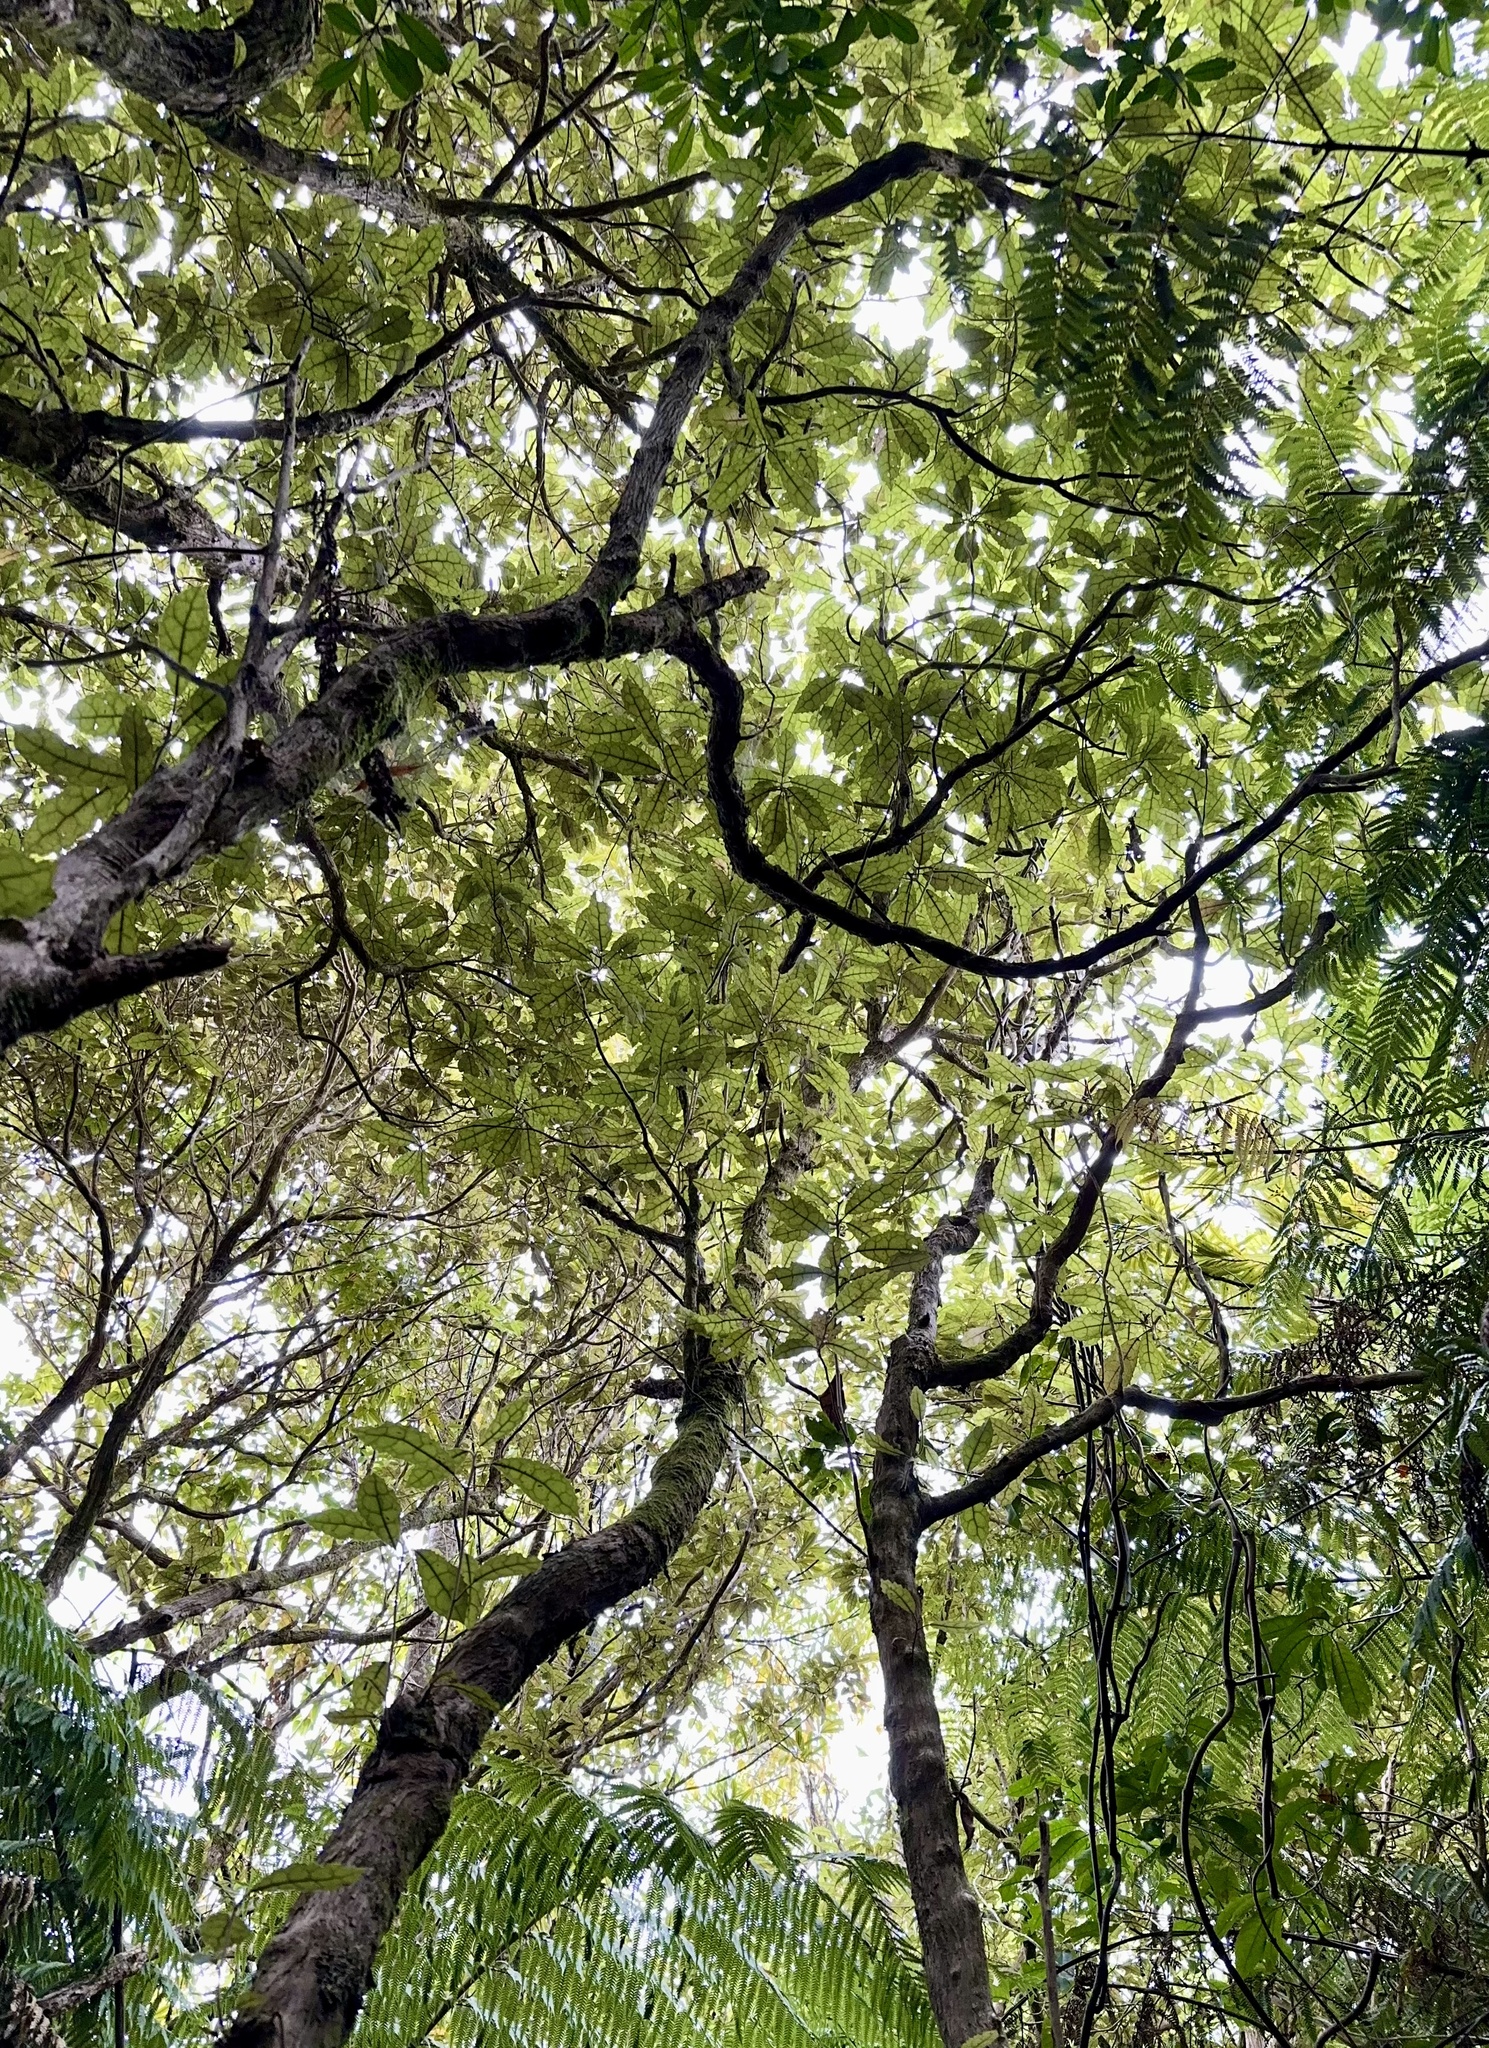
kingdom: Plantae
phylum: Tracheophyta
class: Magnoliopsida
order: Asterales
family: Asteraceae
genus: Olearia
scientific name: Olearia rani
